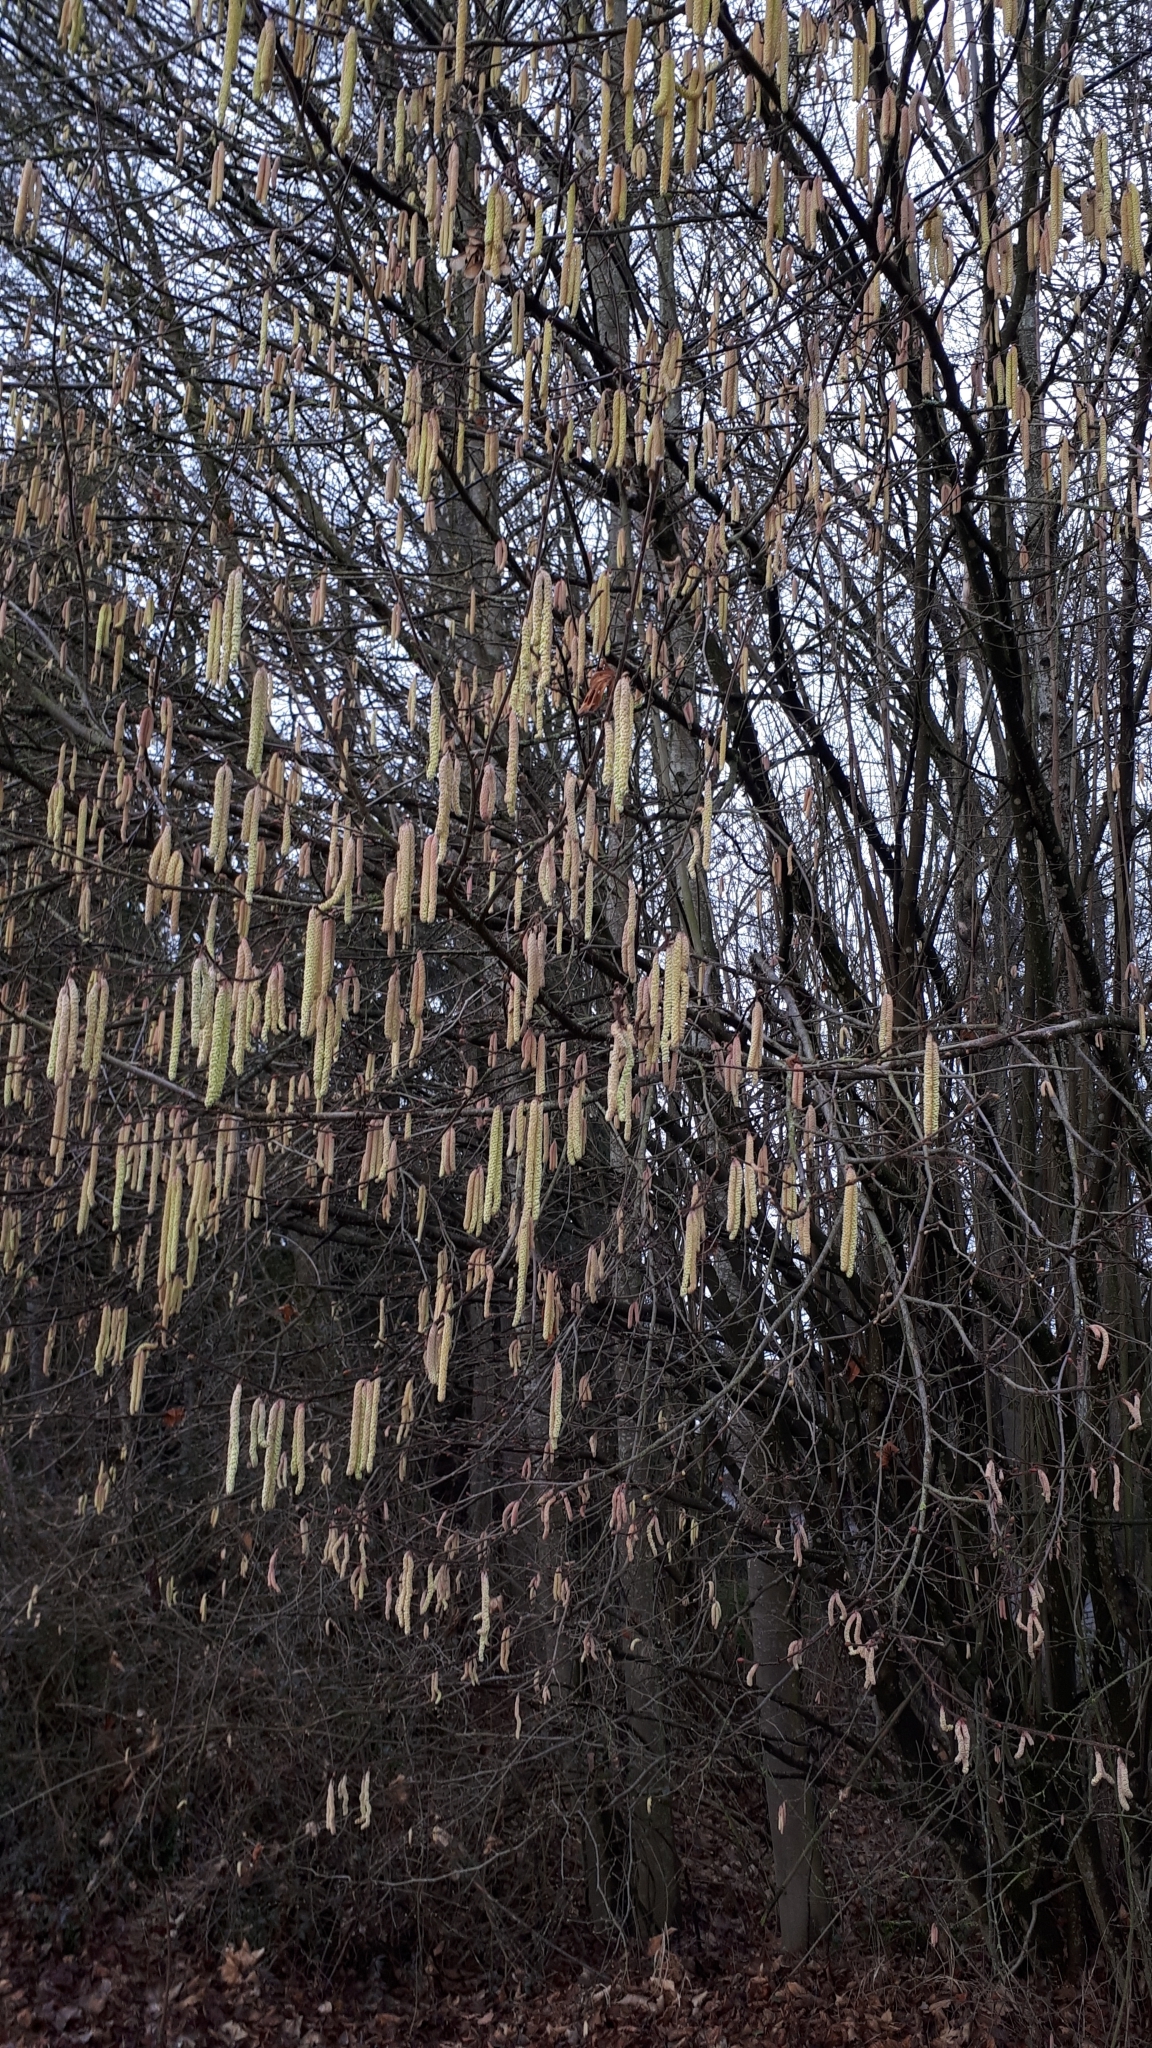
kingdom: Plantae
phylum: Tracheophyta
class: Magnoliopsida
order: Fagales
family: Betulaceae
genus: Corylus
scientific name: Corylus avellana
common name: European hazel
